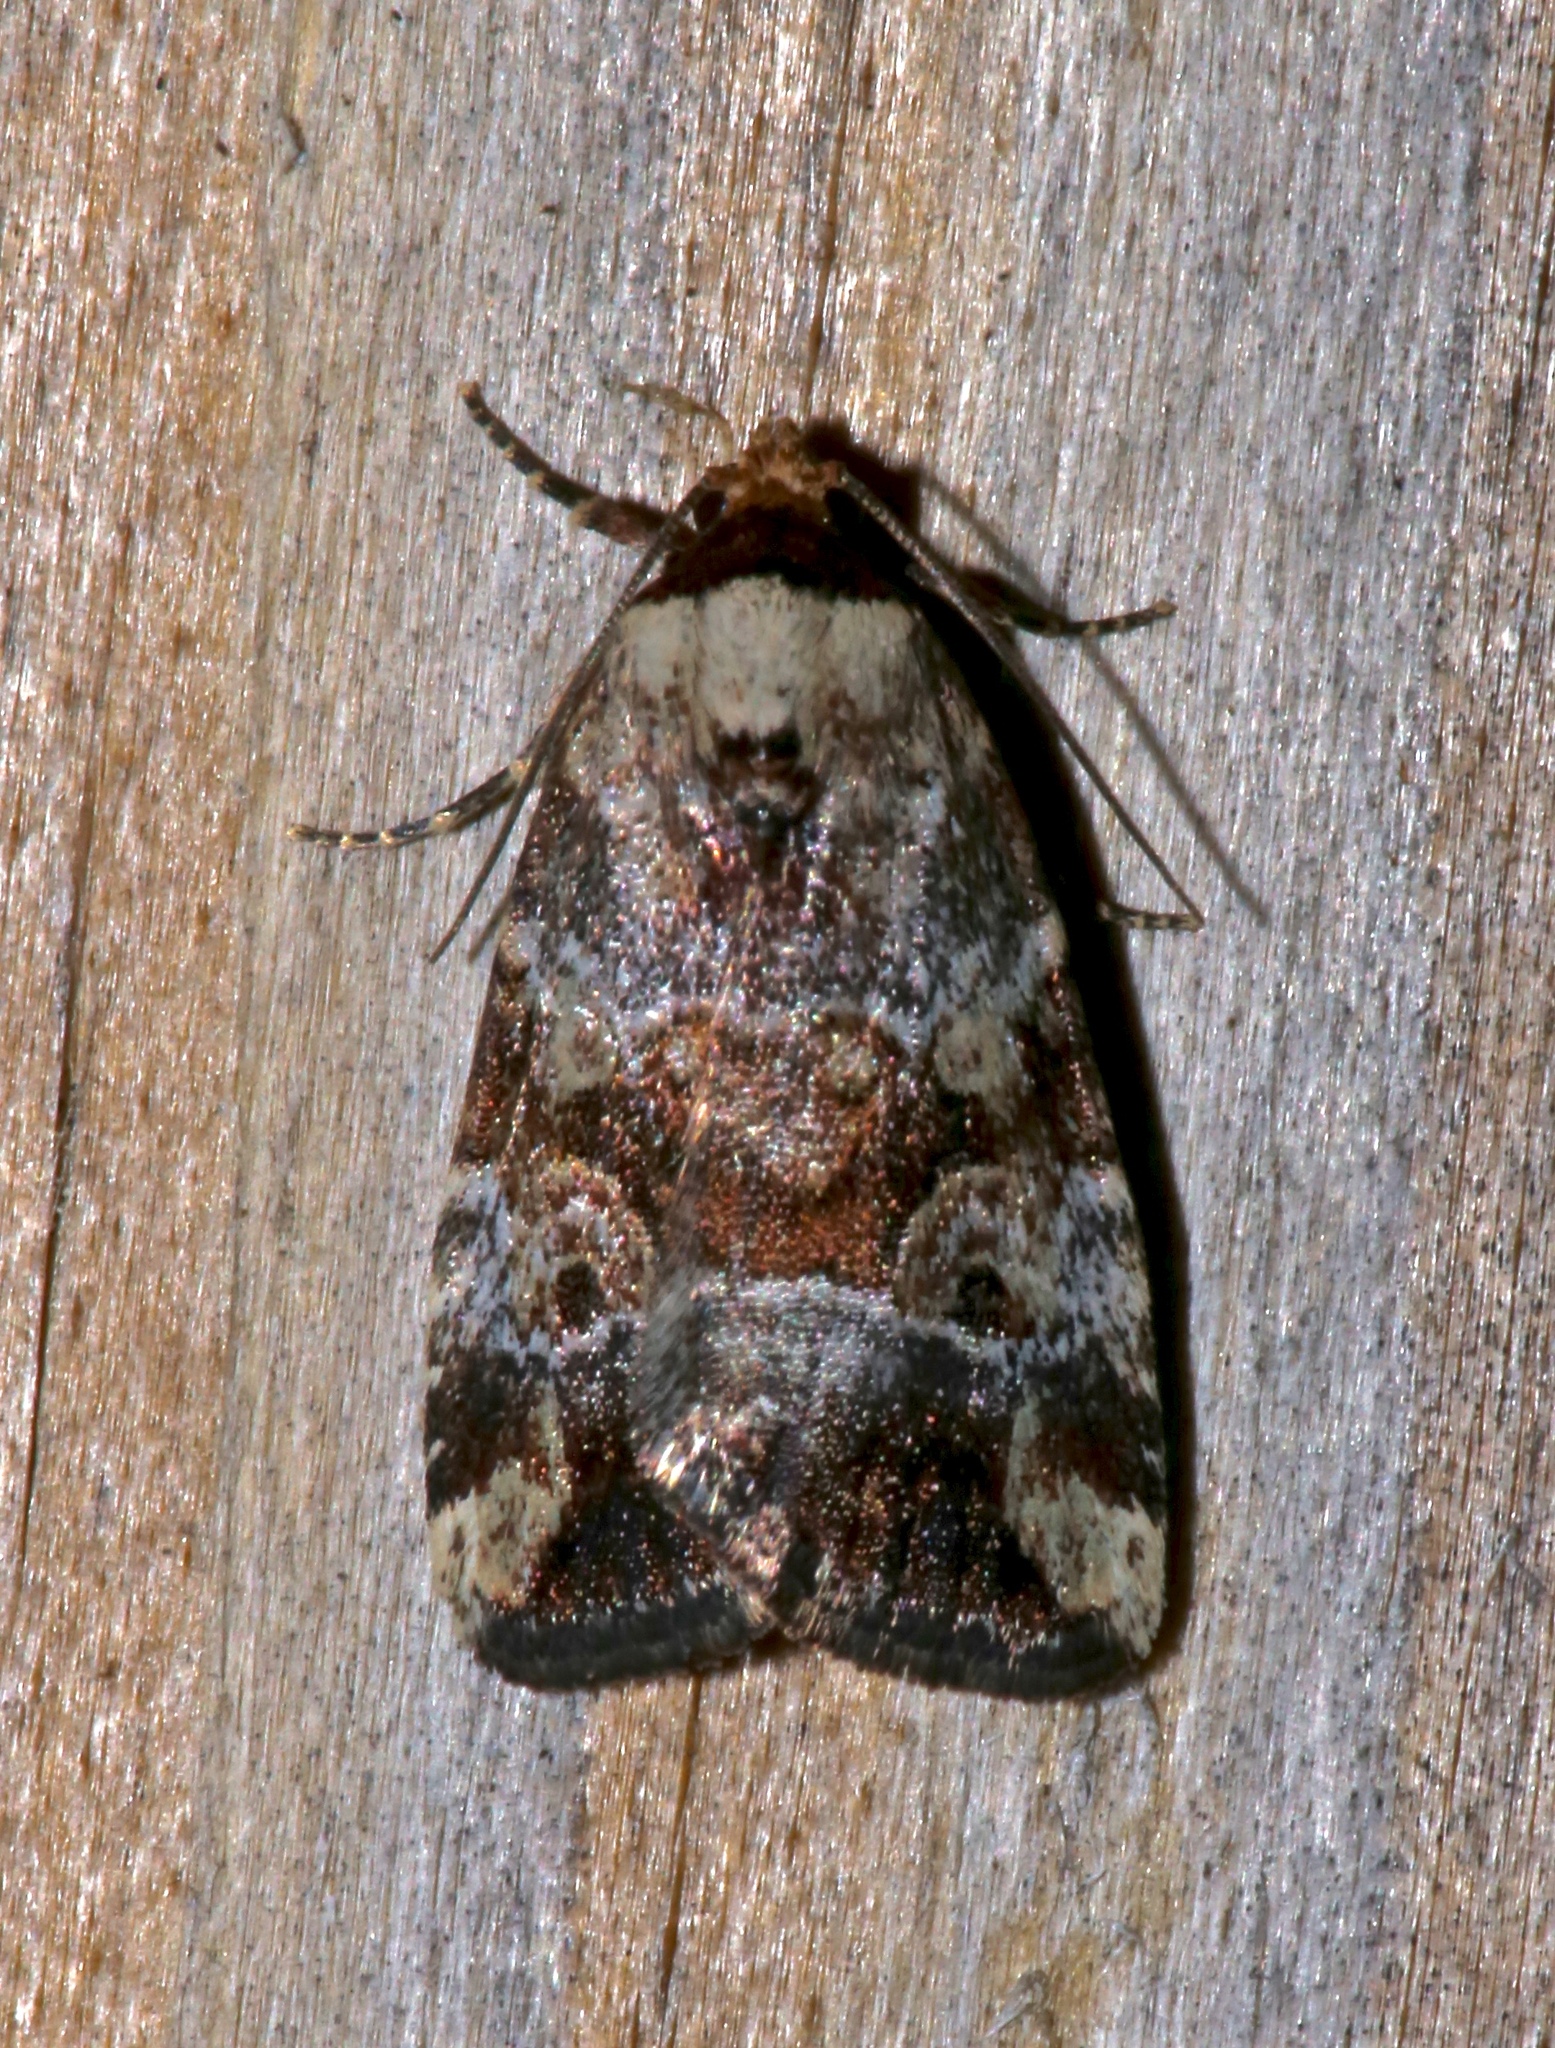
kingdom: Animalia
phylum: Arthropoda
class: Insecta
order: Lepidoptera
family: Noctuidae
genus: Elaphria
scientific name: Elaphria alapallida
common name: Pale-winged midget
